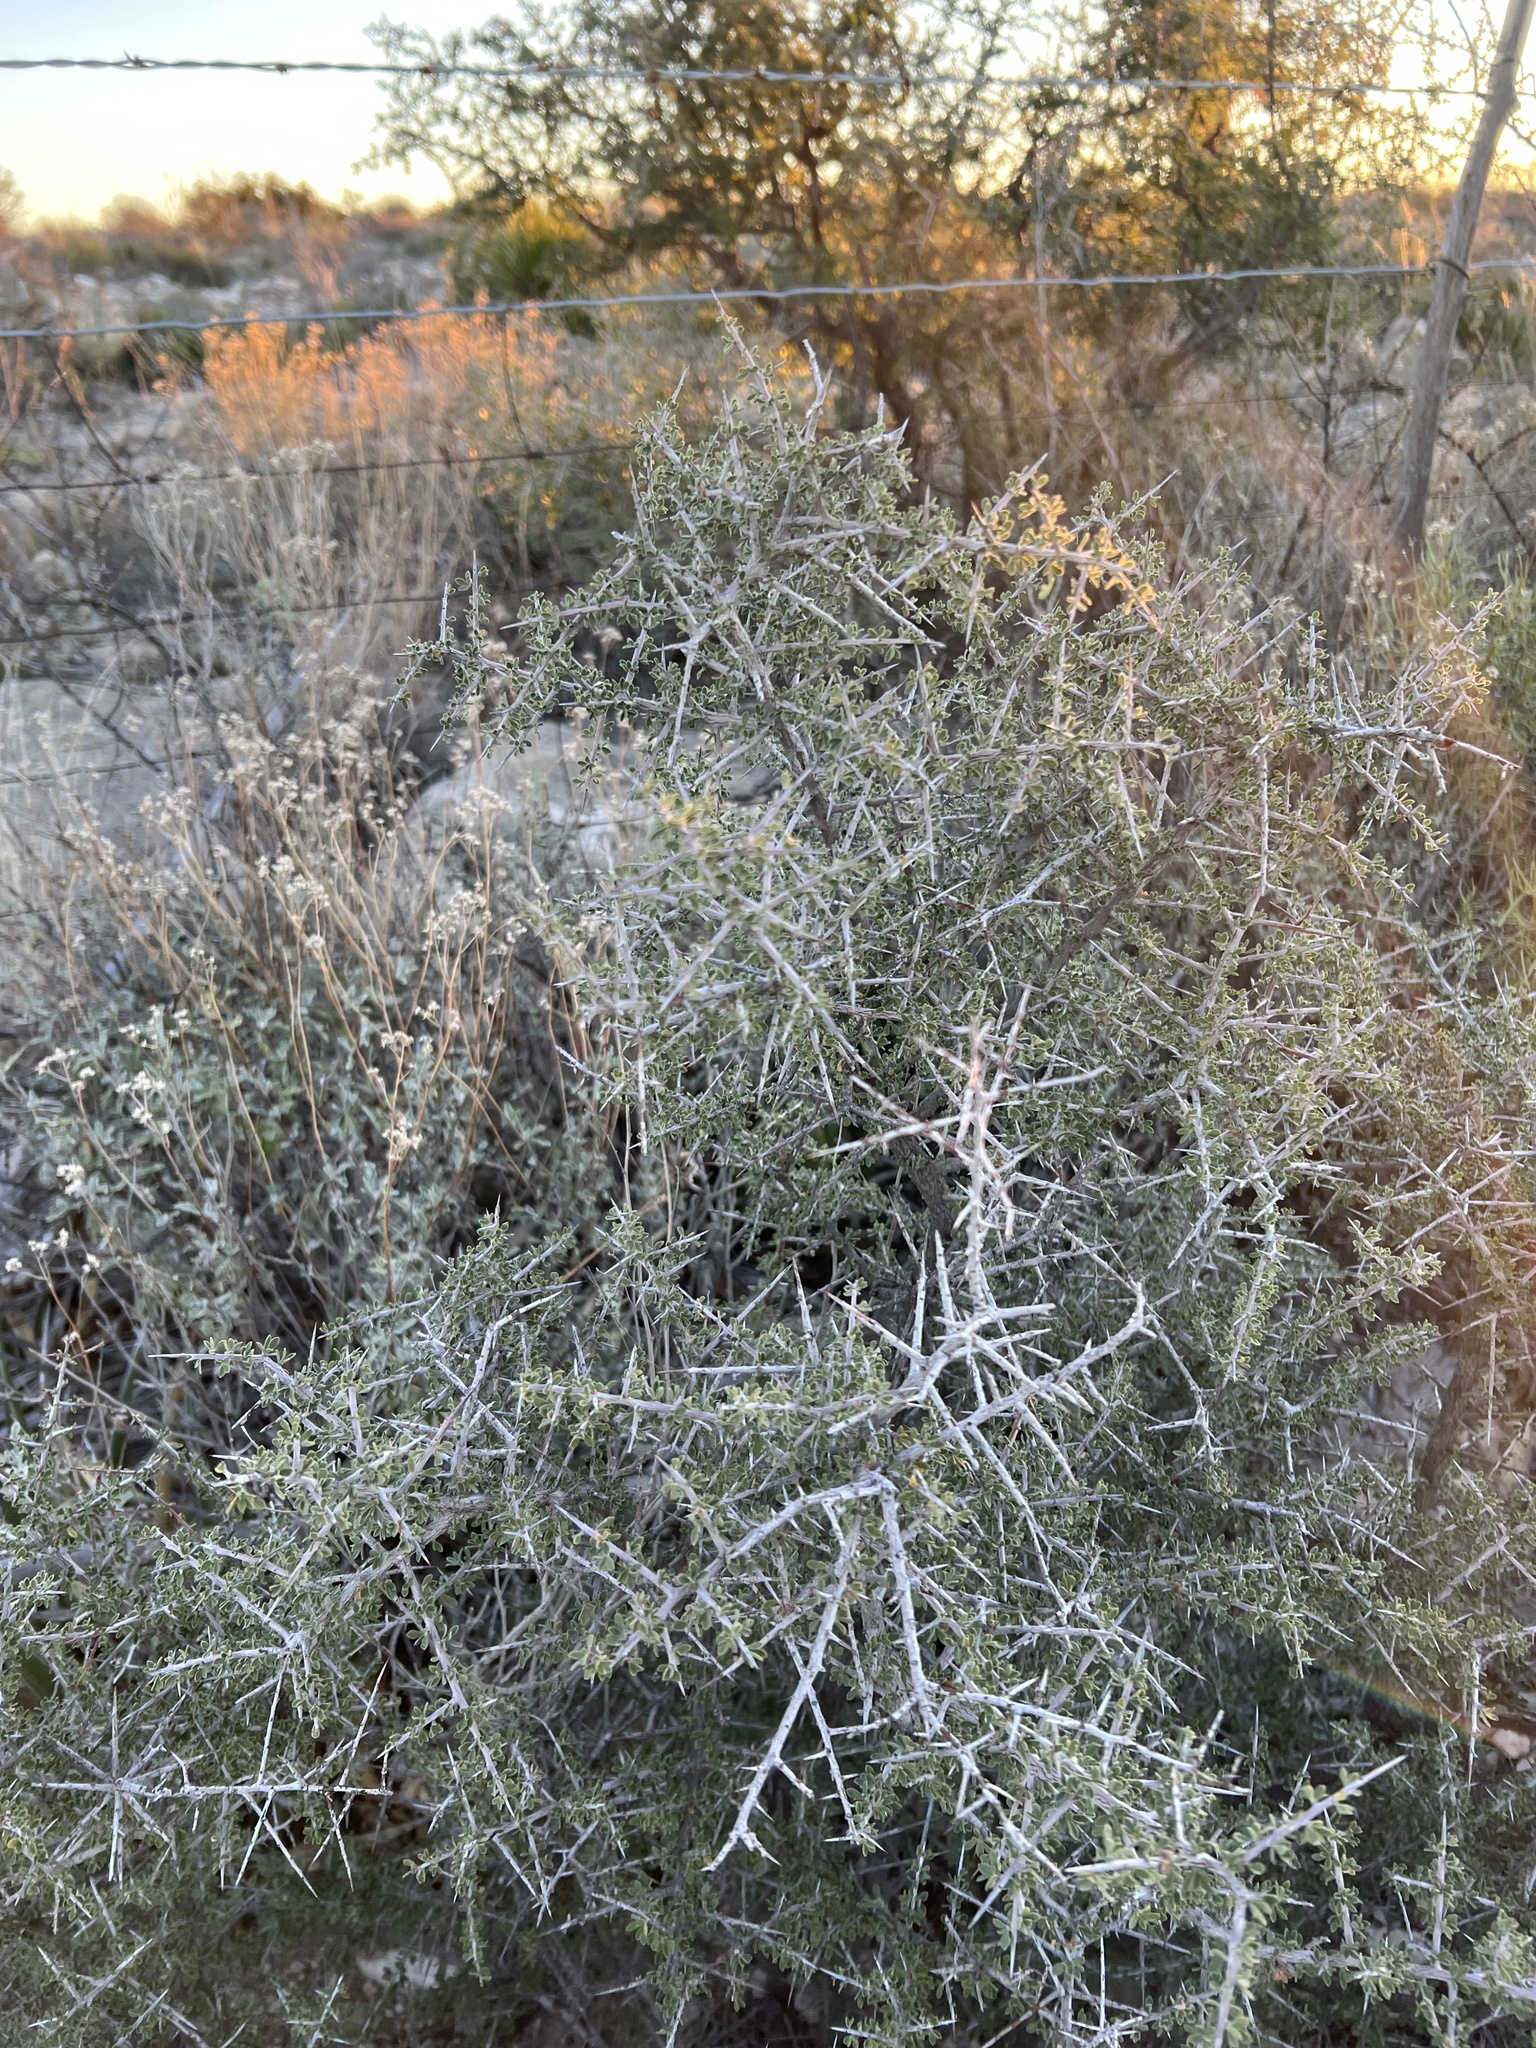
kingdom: Plantae
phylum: Tracheophyta
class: Magnoliopsida
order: Rosales
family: Rhamnaceae
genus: Condalia
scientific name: Condalia warnockii
